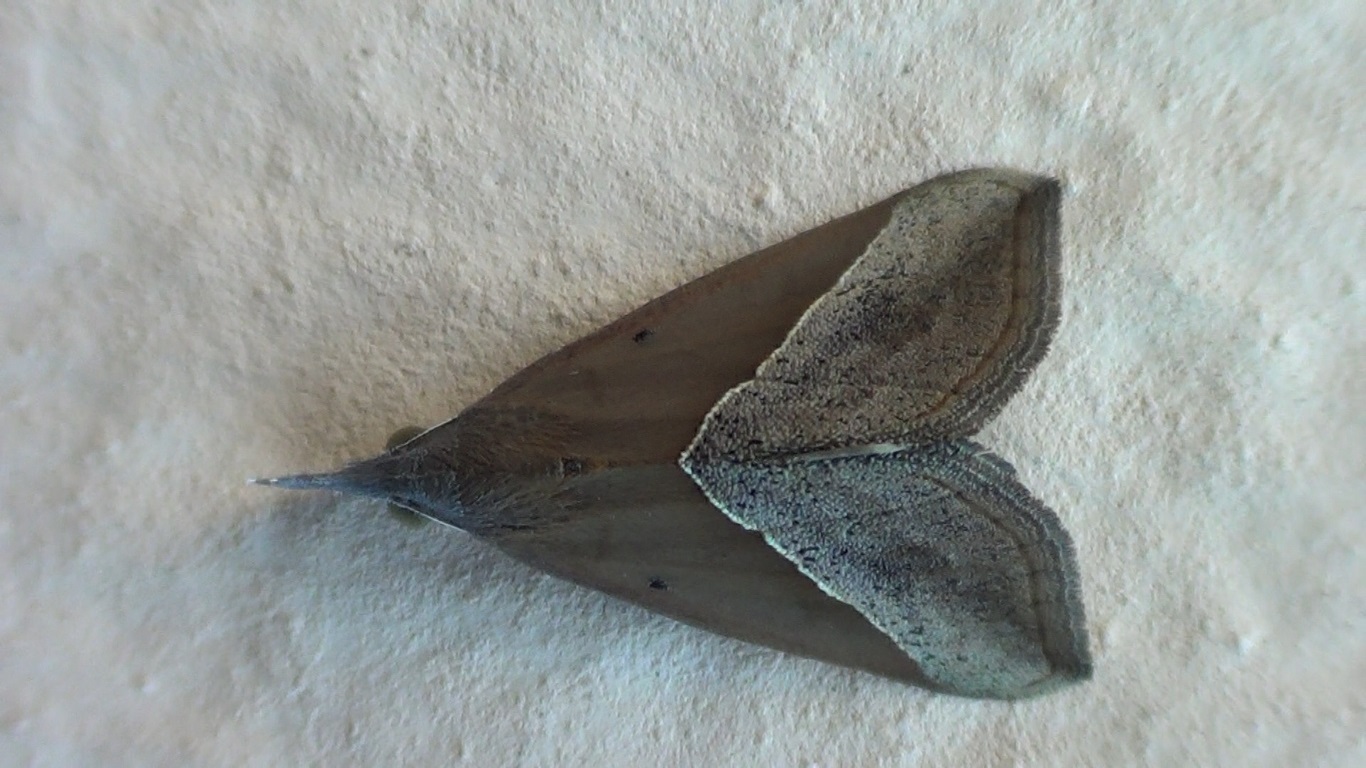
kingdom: Animalia
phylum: Arthropoda
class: Insecta
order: Lepidoptera
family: Erebidae
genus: Hypena
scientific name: Hypena lividalis
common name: Chevron snout
